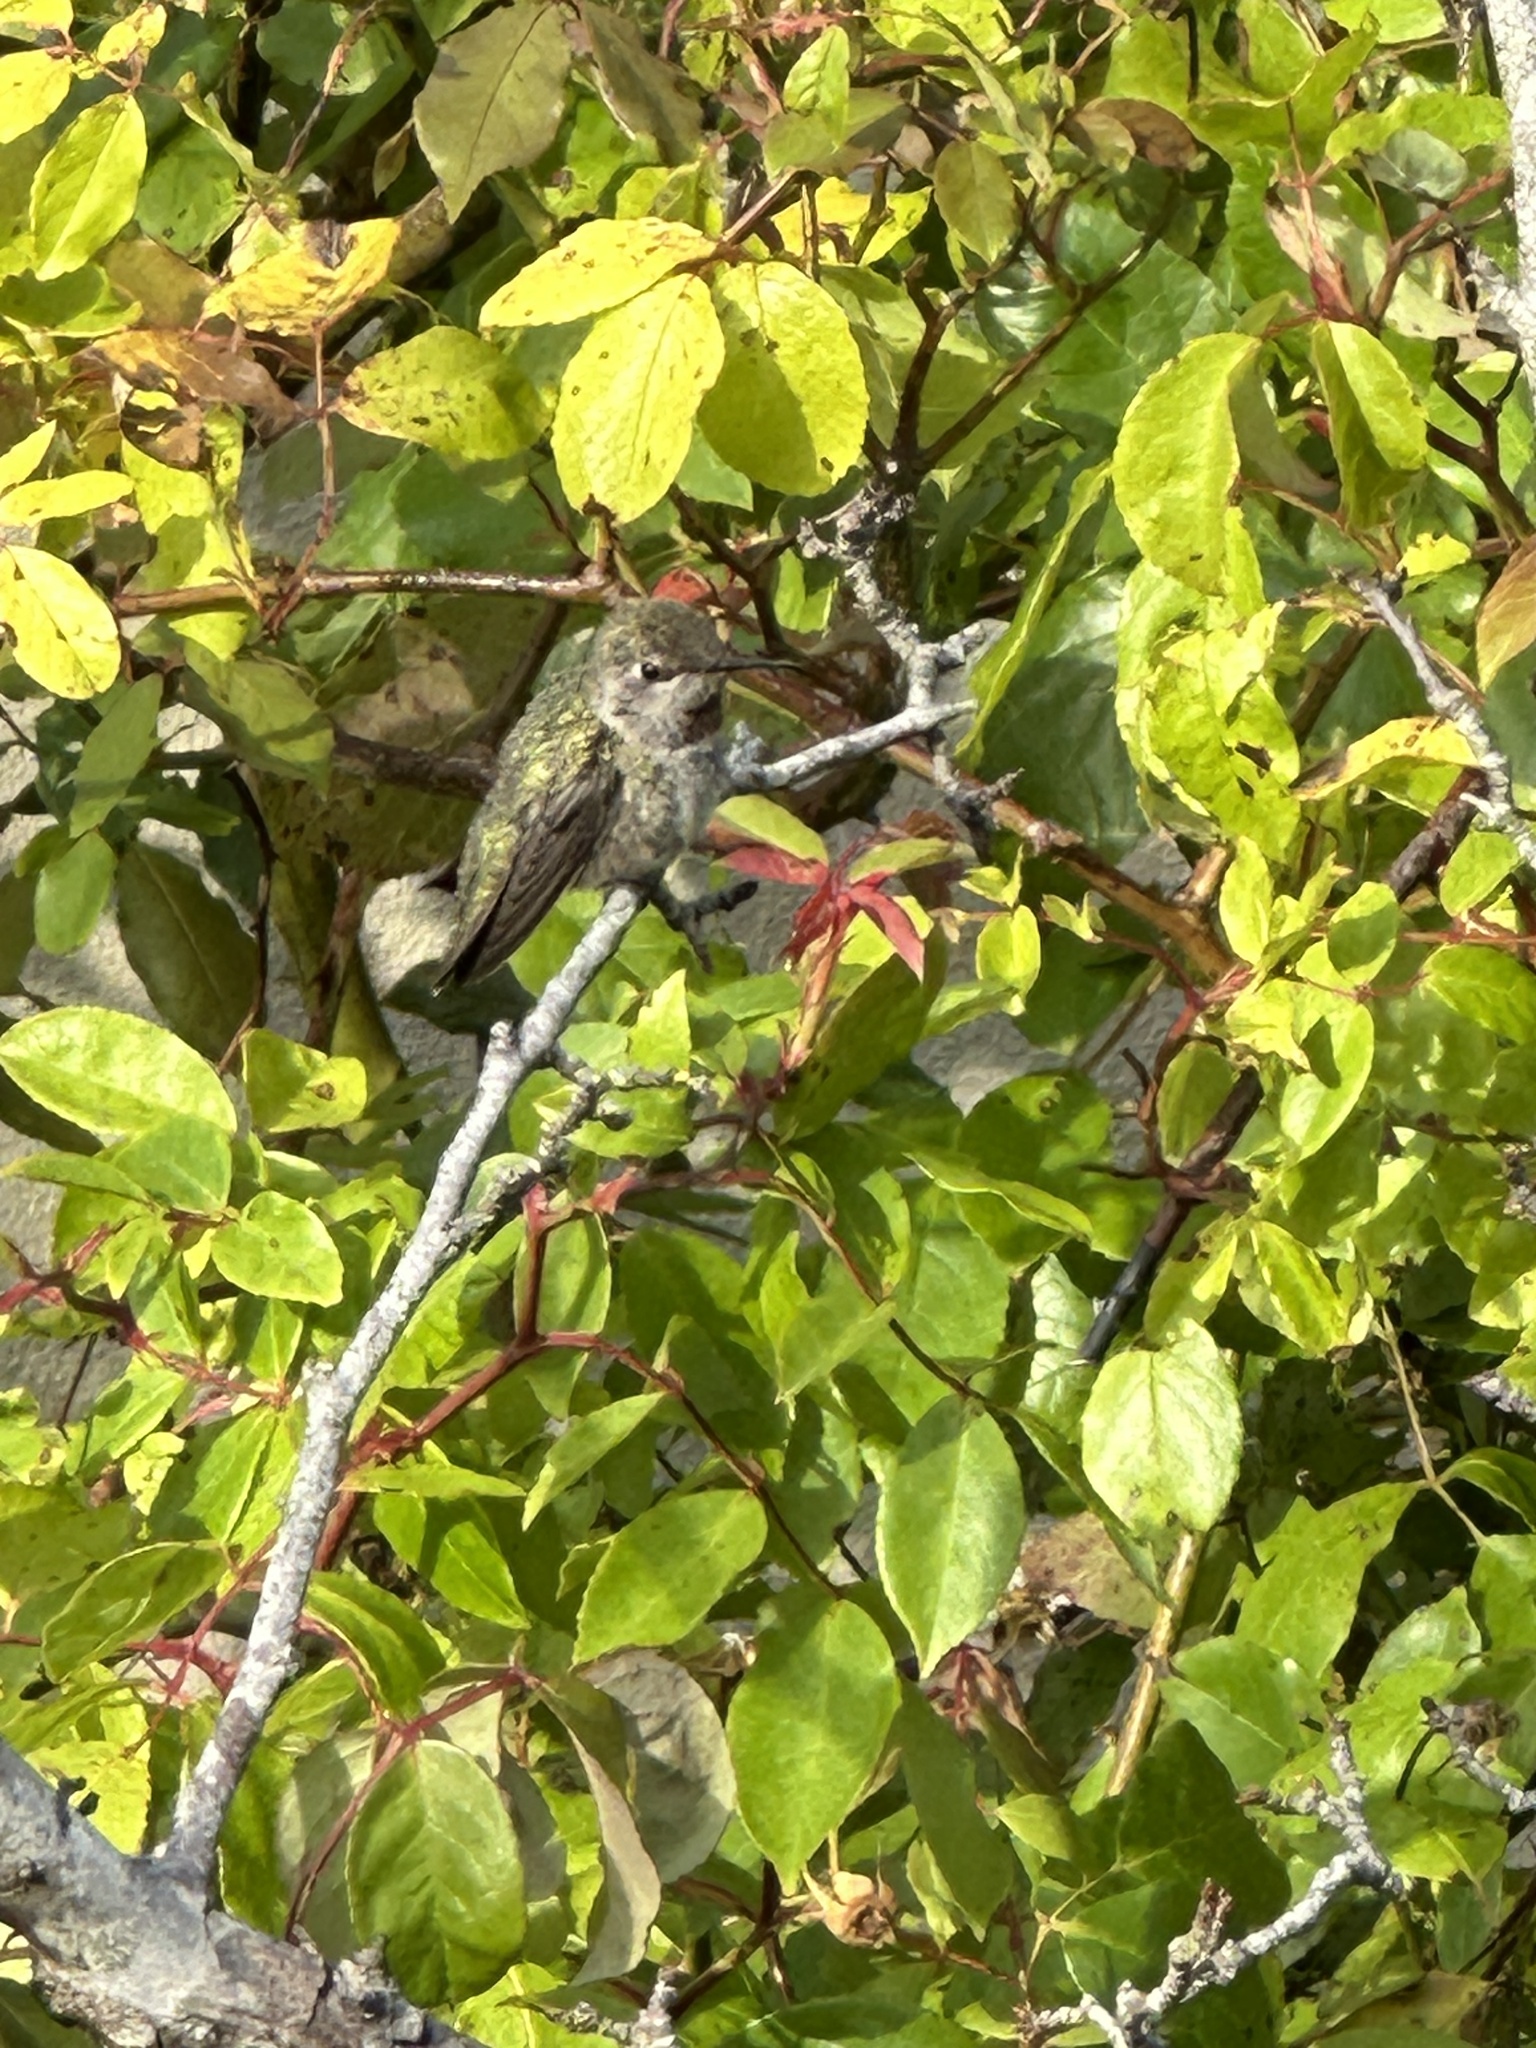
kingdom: Animalia
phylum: Chordata
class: Aves
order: Apodiformes
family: Trochilidae
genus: Calypte
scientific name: Calypte anna
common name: Anna's hummingbird
